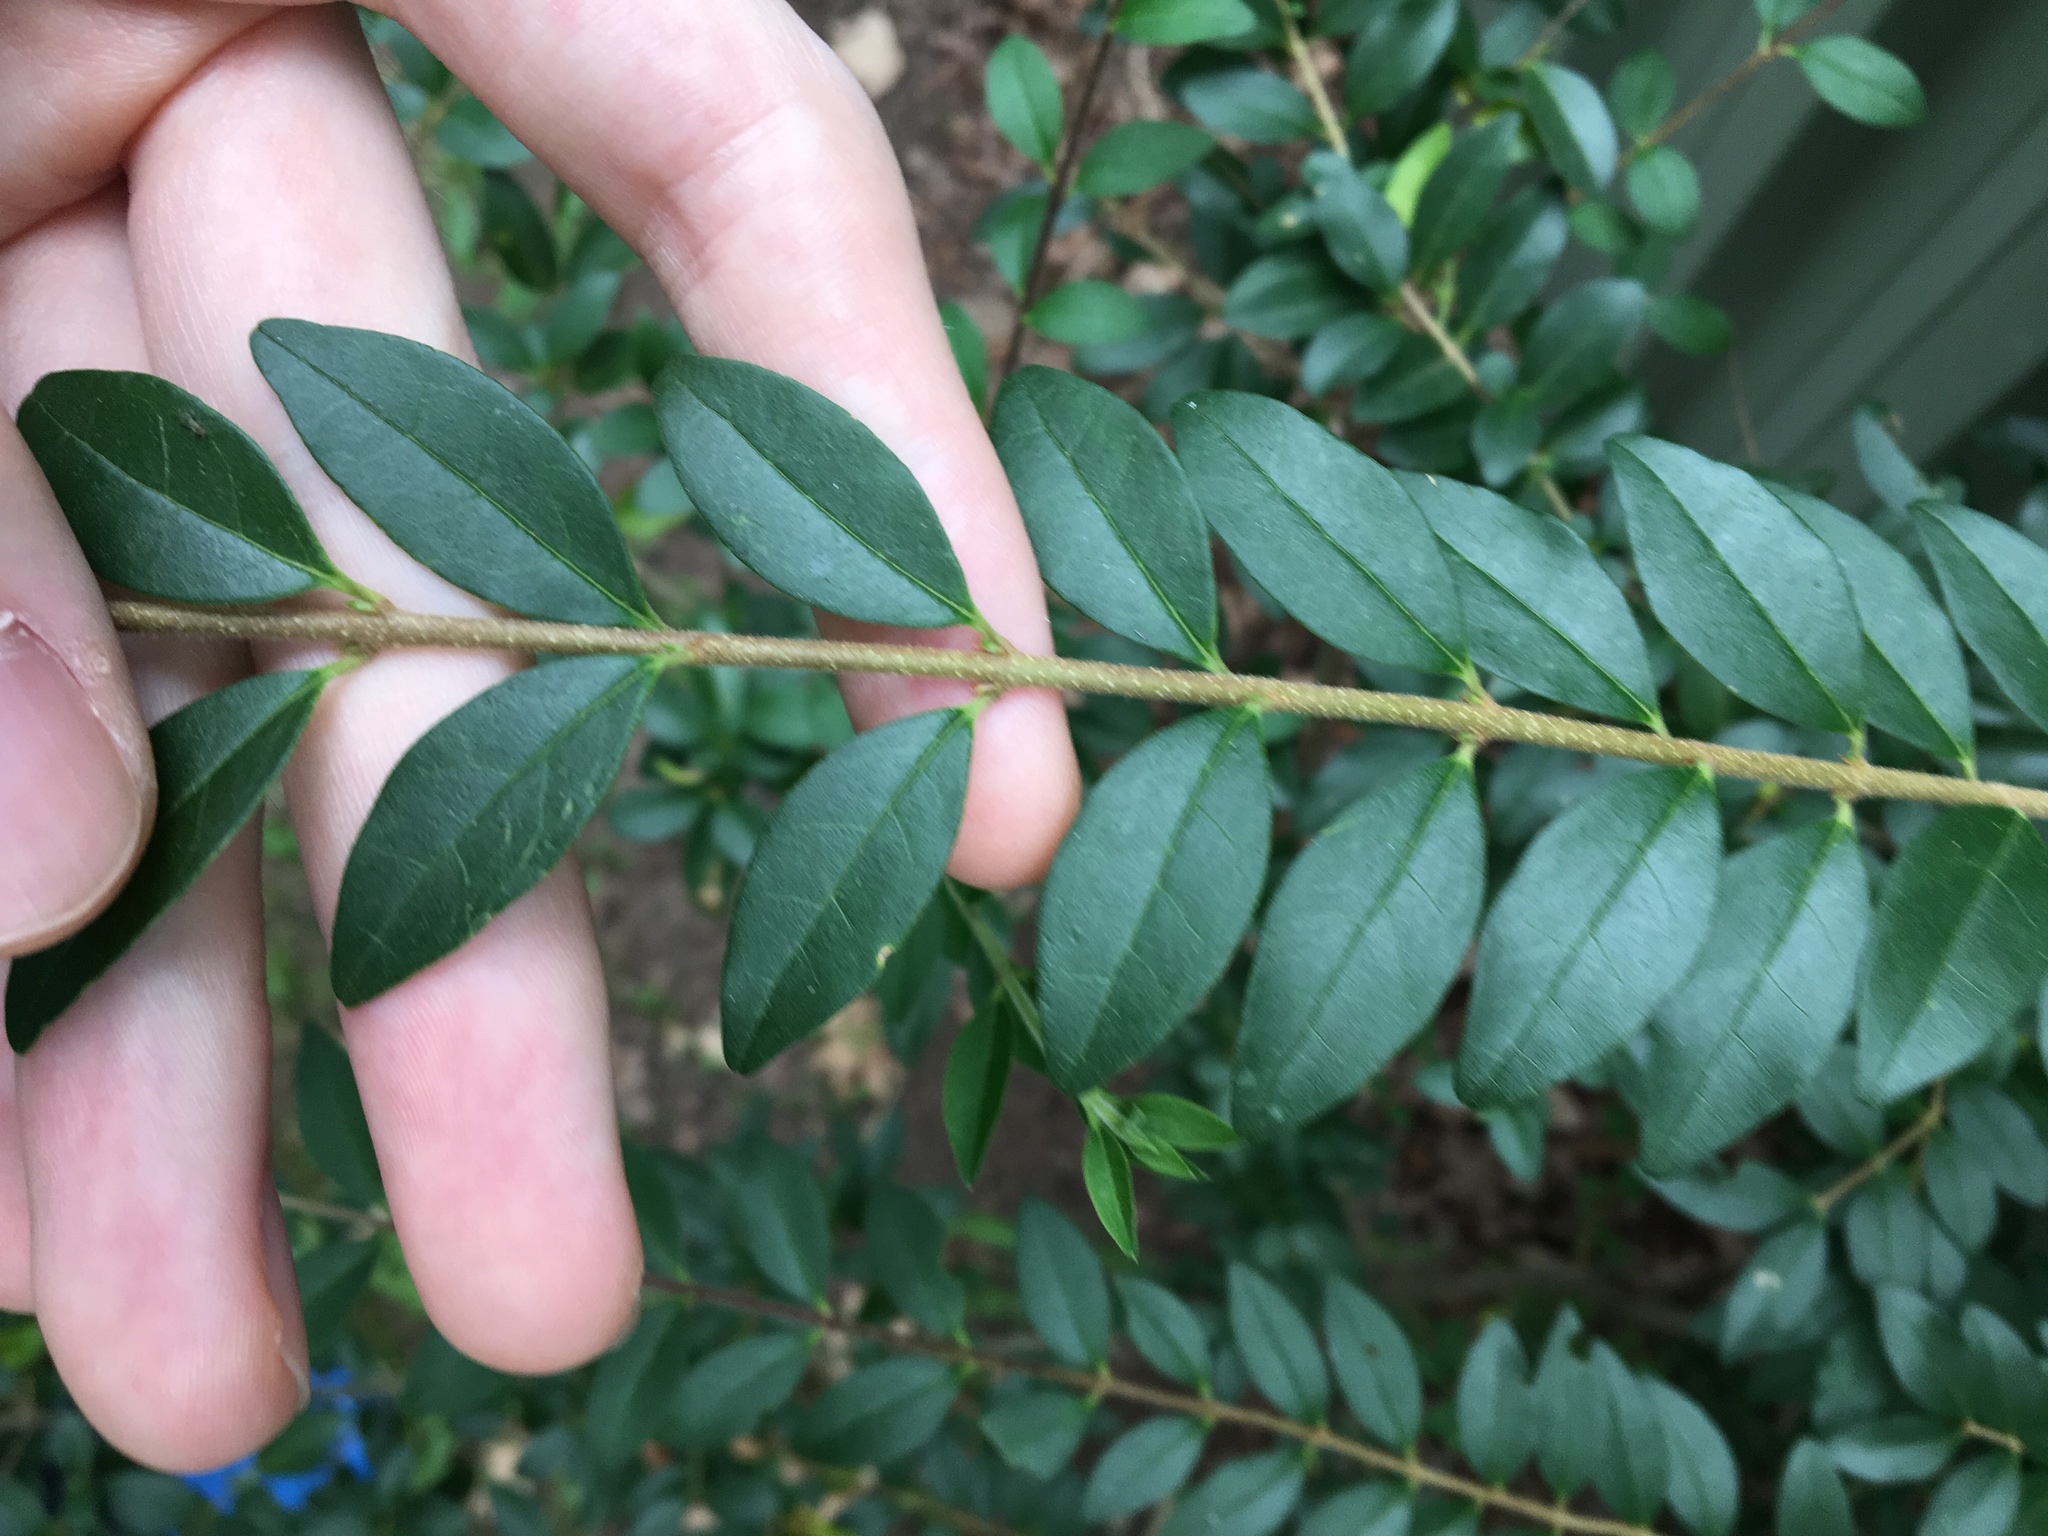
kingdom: Plantae
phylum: Tracheophyta
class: Magnoliopsida
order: Lamiales
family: Oleaceae
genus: Ligustrum
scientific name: Ligustrum sinense
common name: Chinese privet
